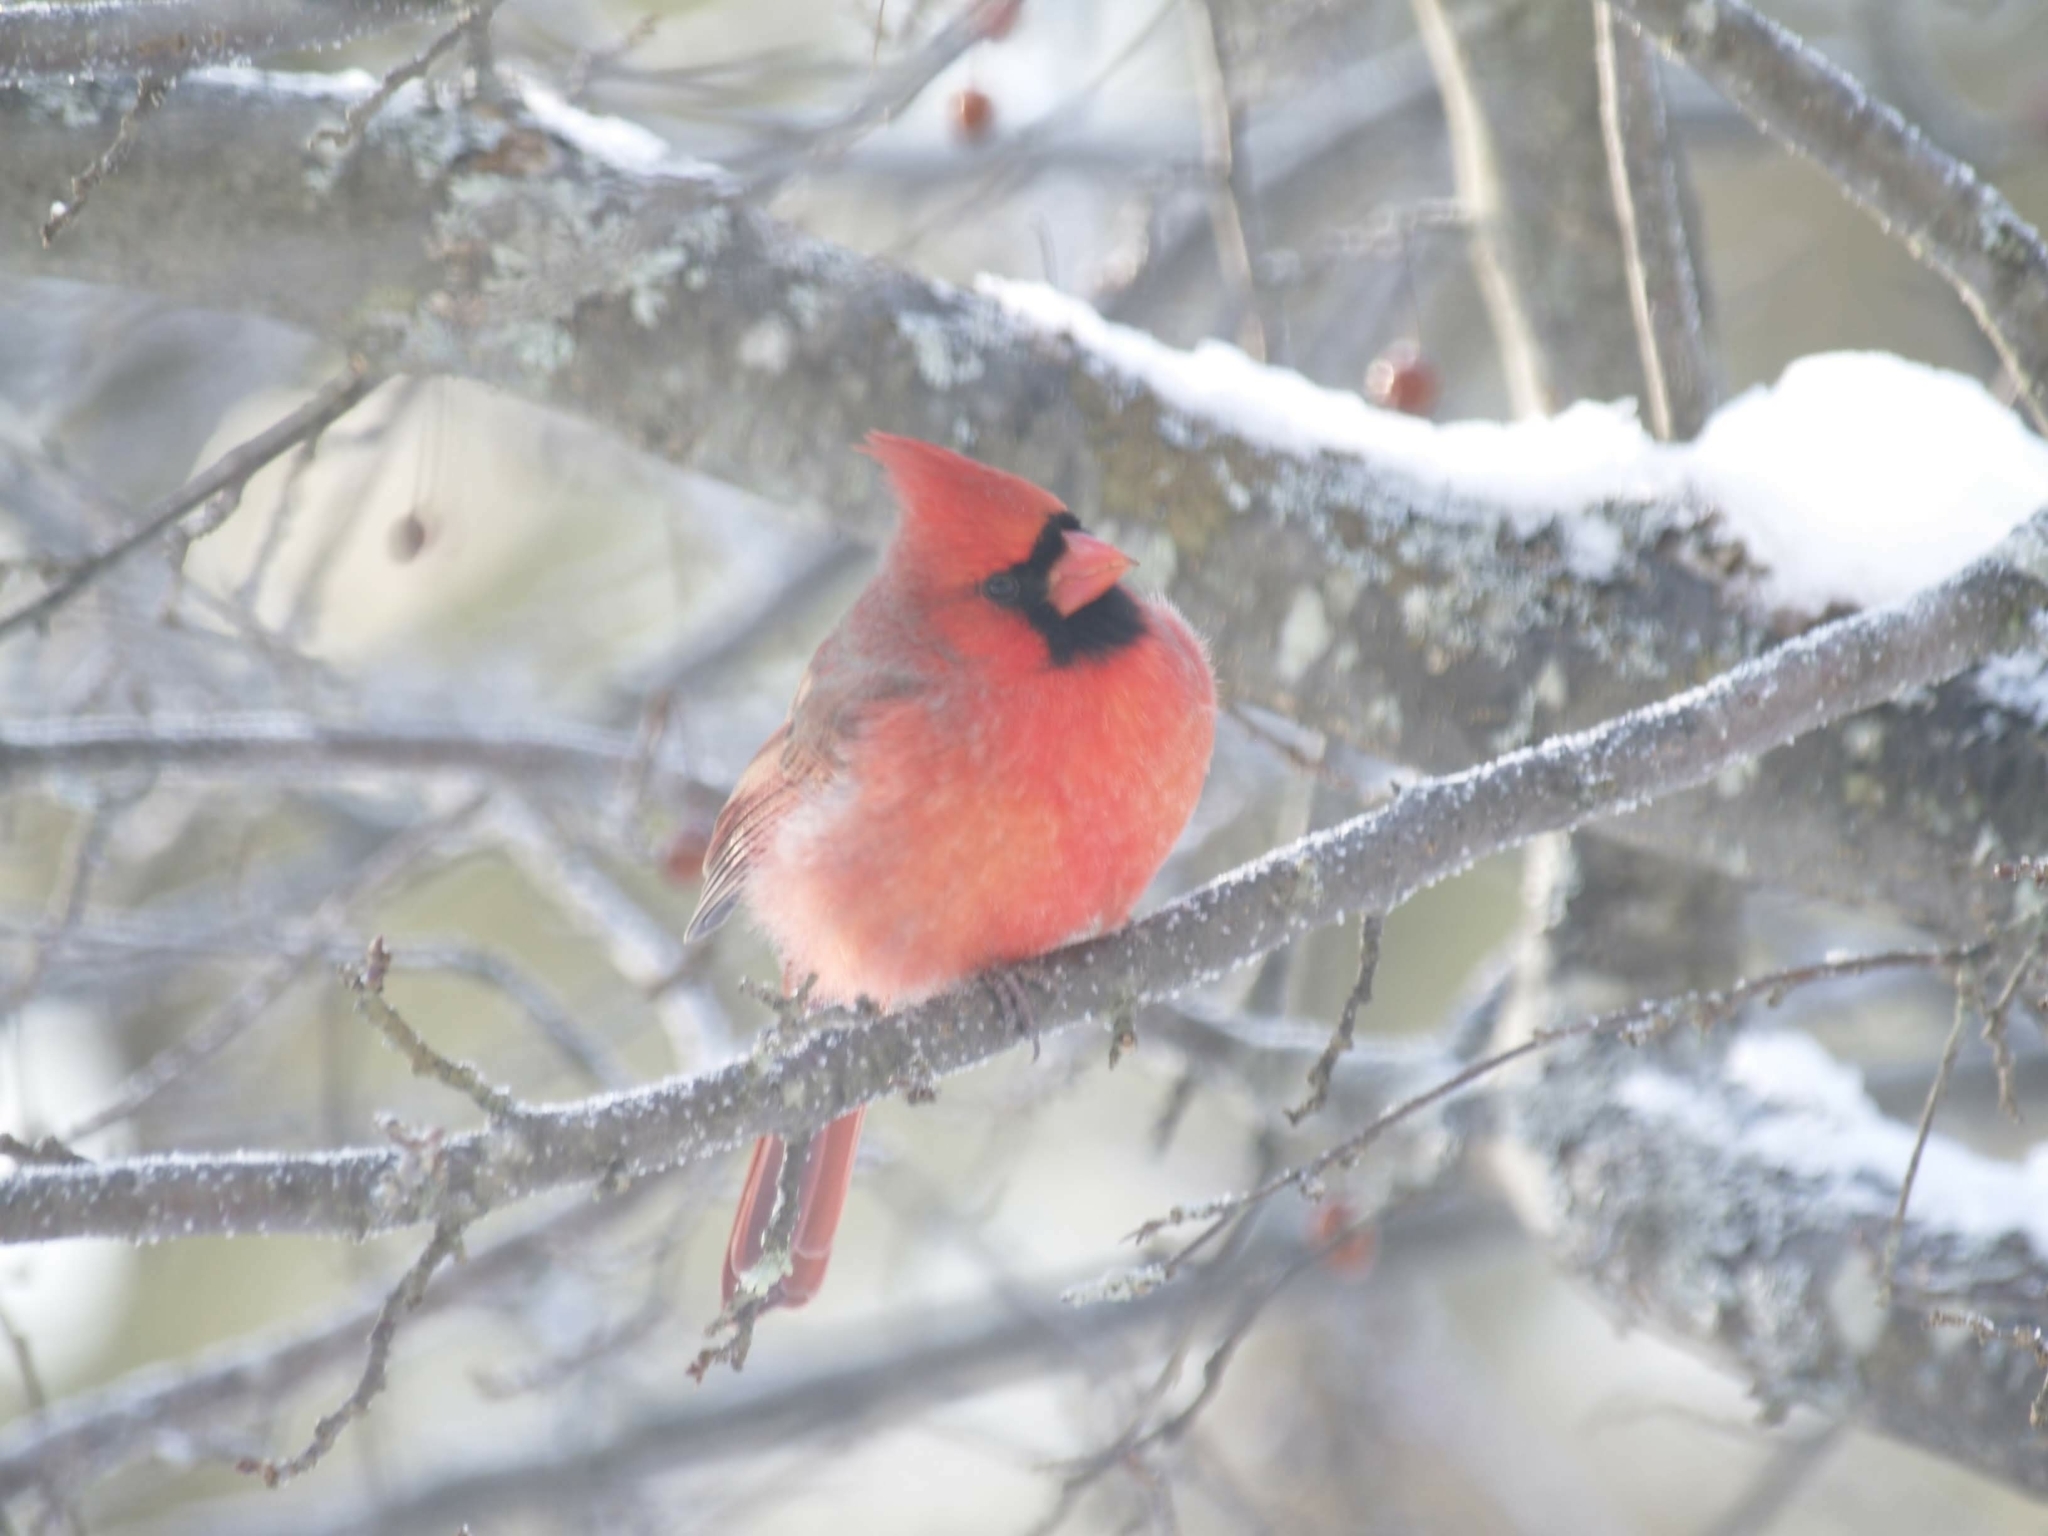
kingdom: Animalia
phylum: Chordata
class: Aves
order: Passeriformes
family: Cardinalidae
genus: Cardinalis
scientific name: Cardinalis cardinalis
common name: Northern cardinal
